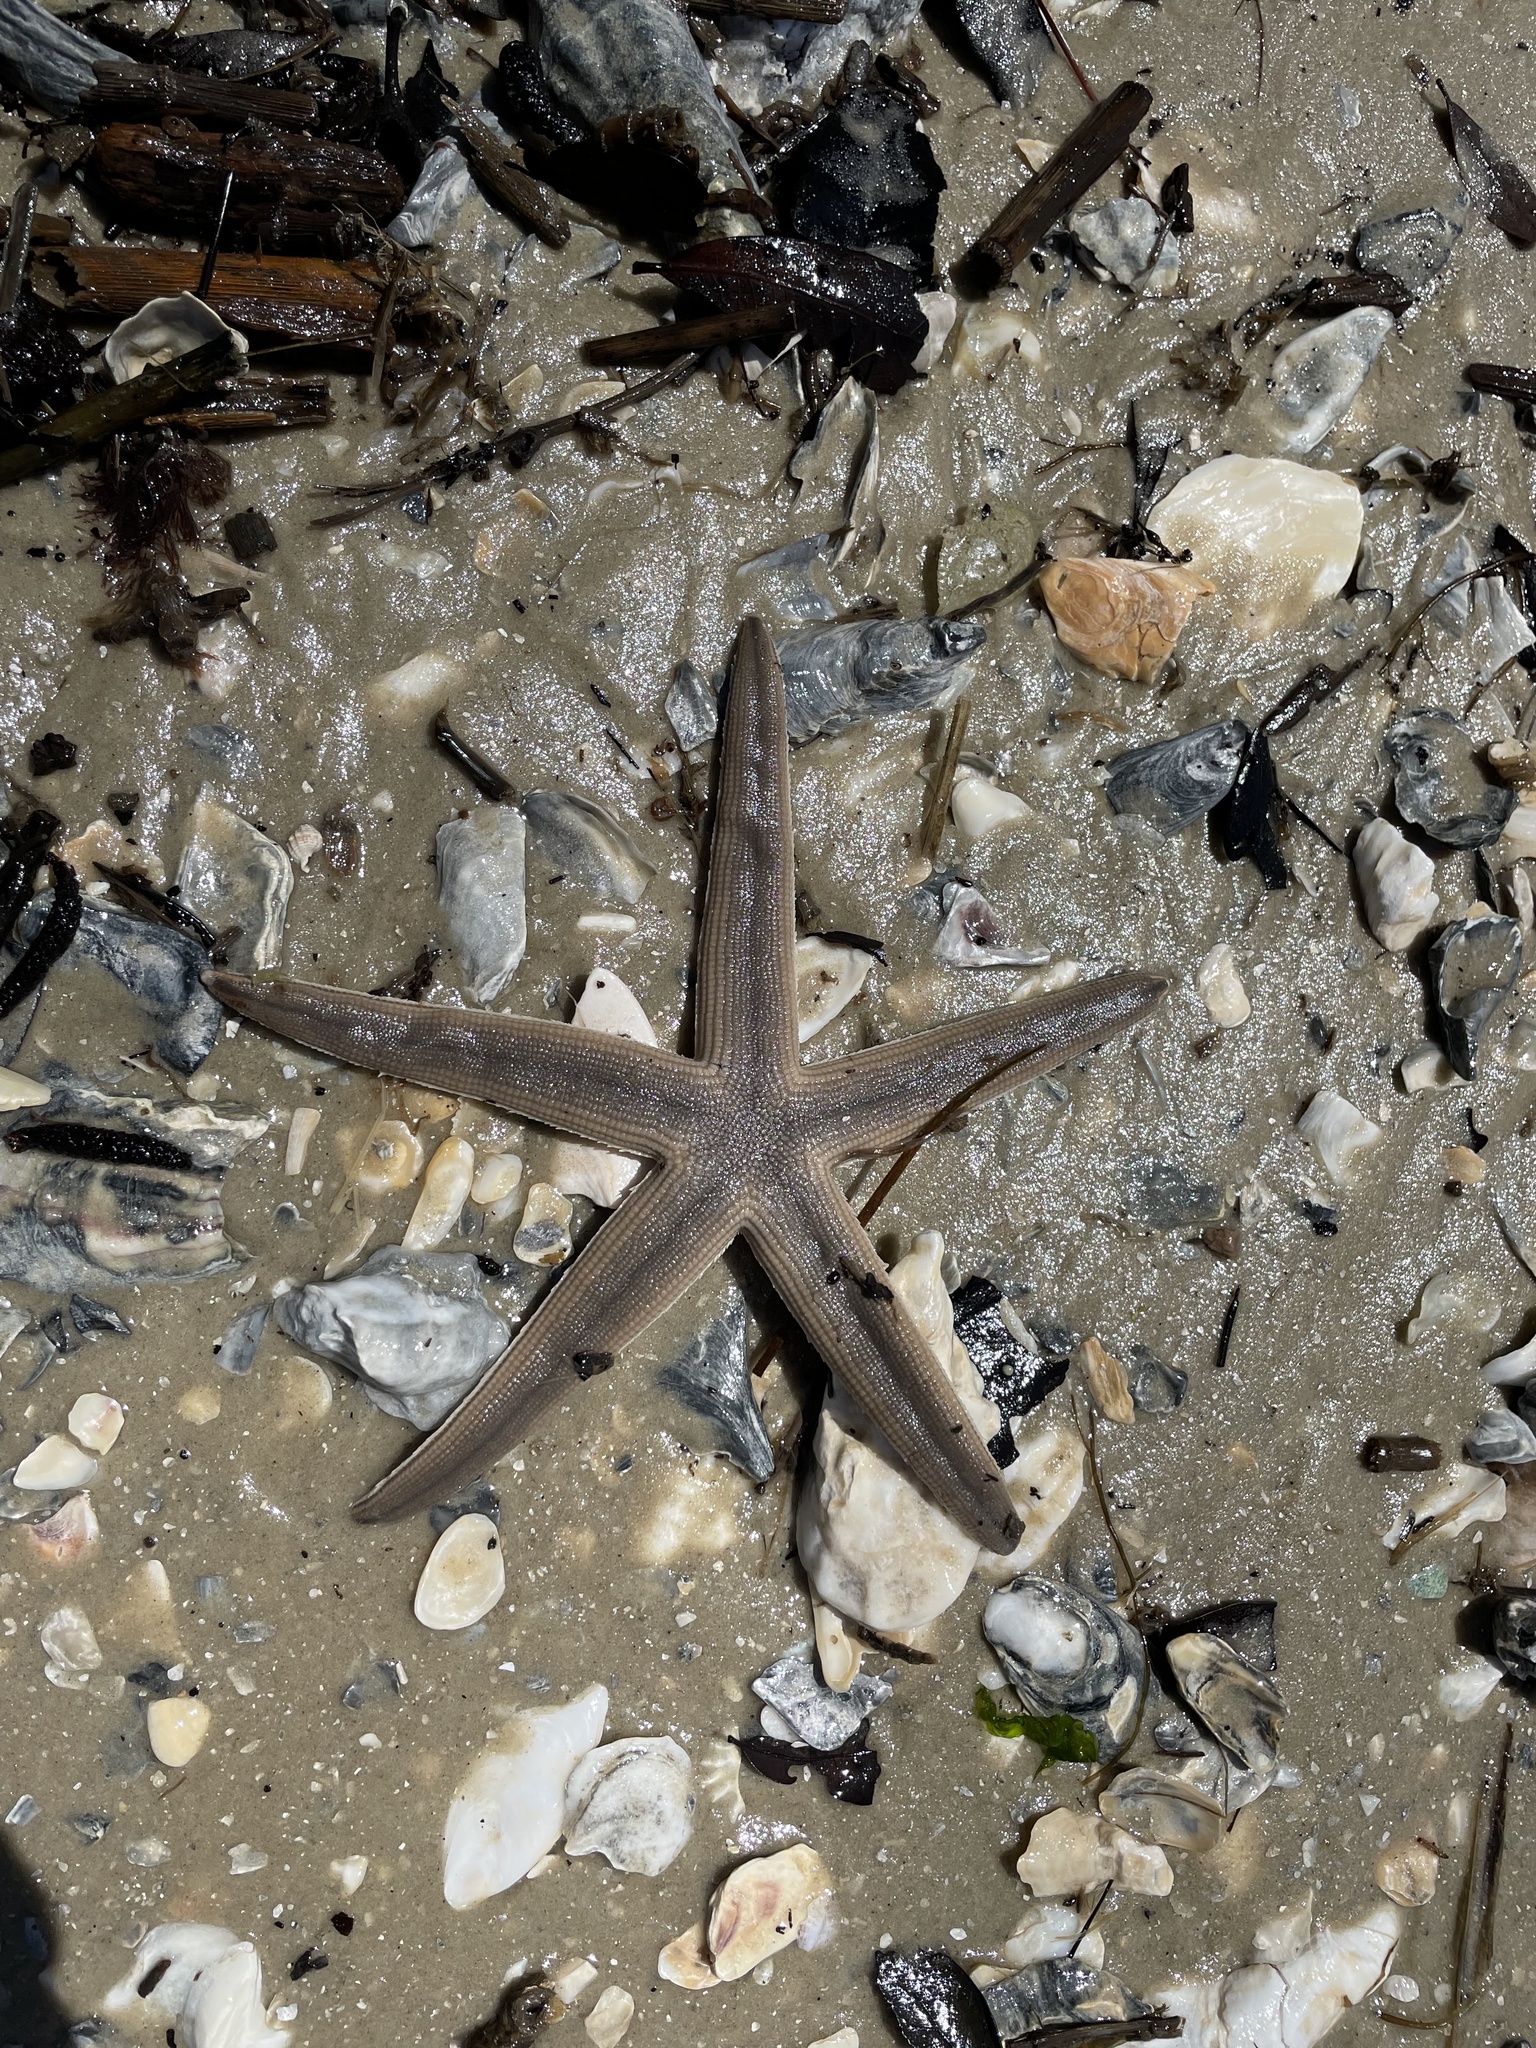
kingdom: Animalia
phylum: Echinodermata
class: Asteroidea
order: Paxillosida
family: Luidiidae
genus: Luidia
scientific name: Luidia clathrata
